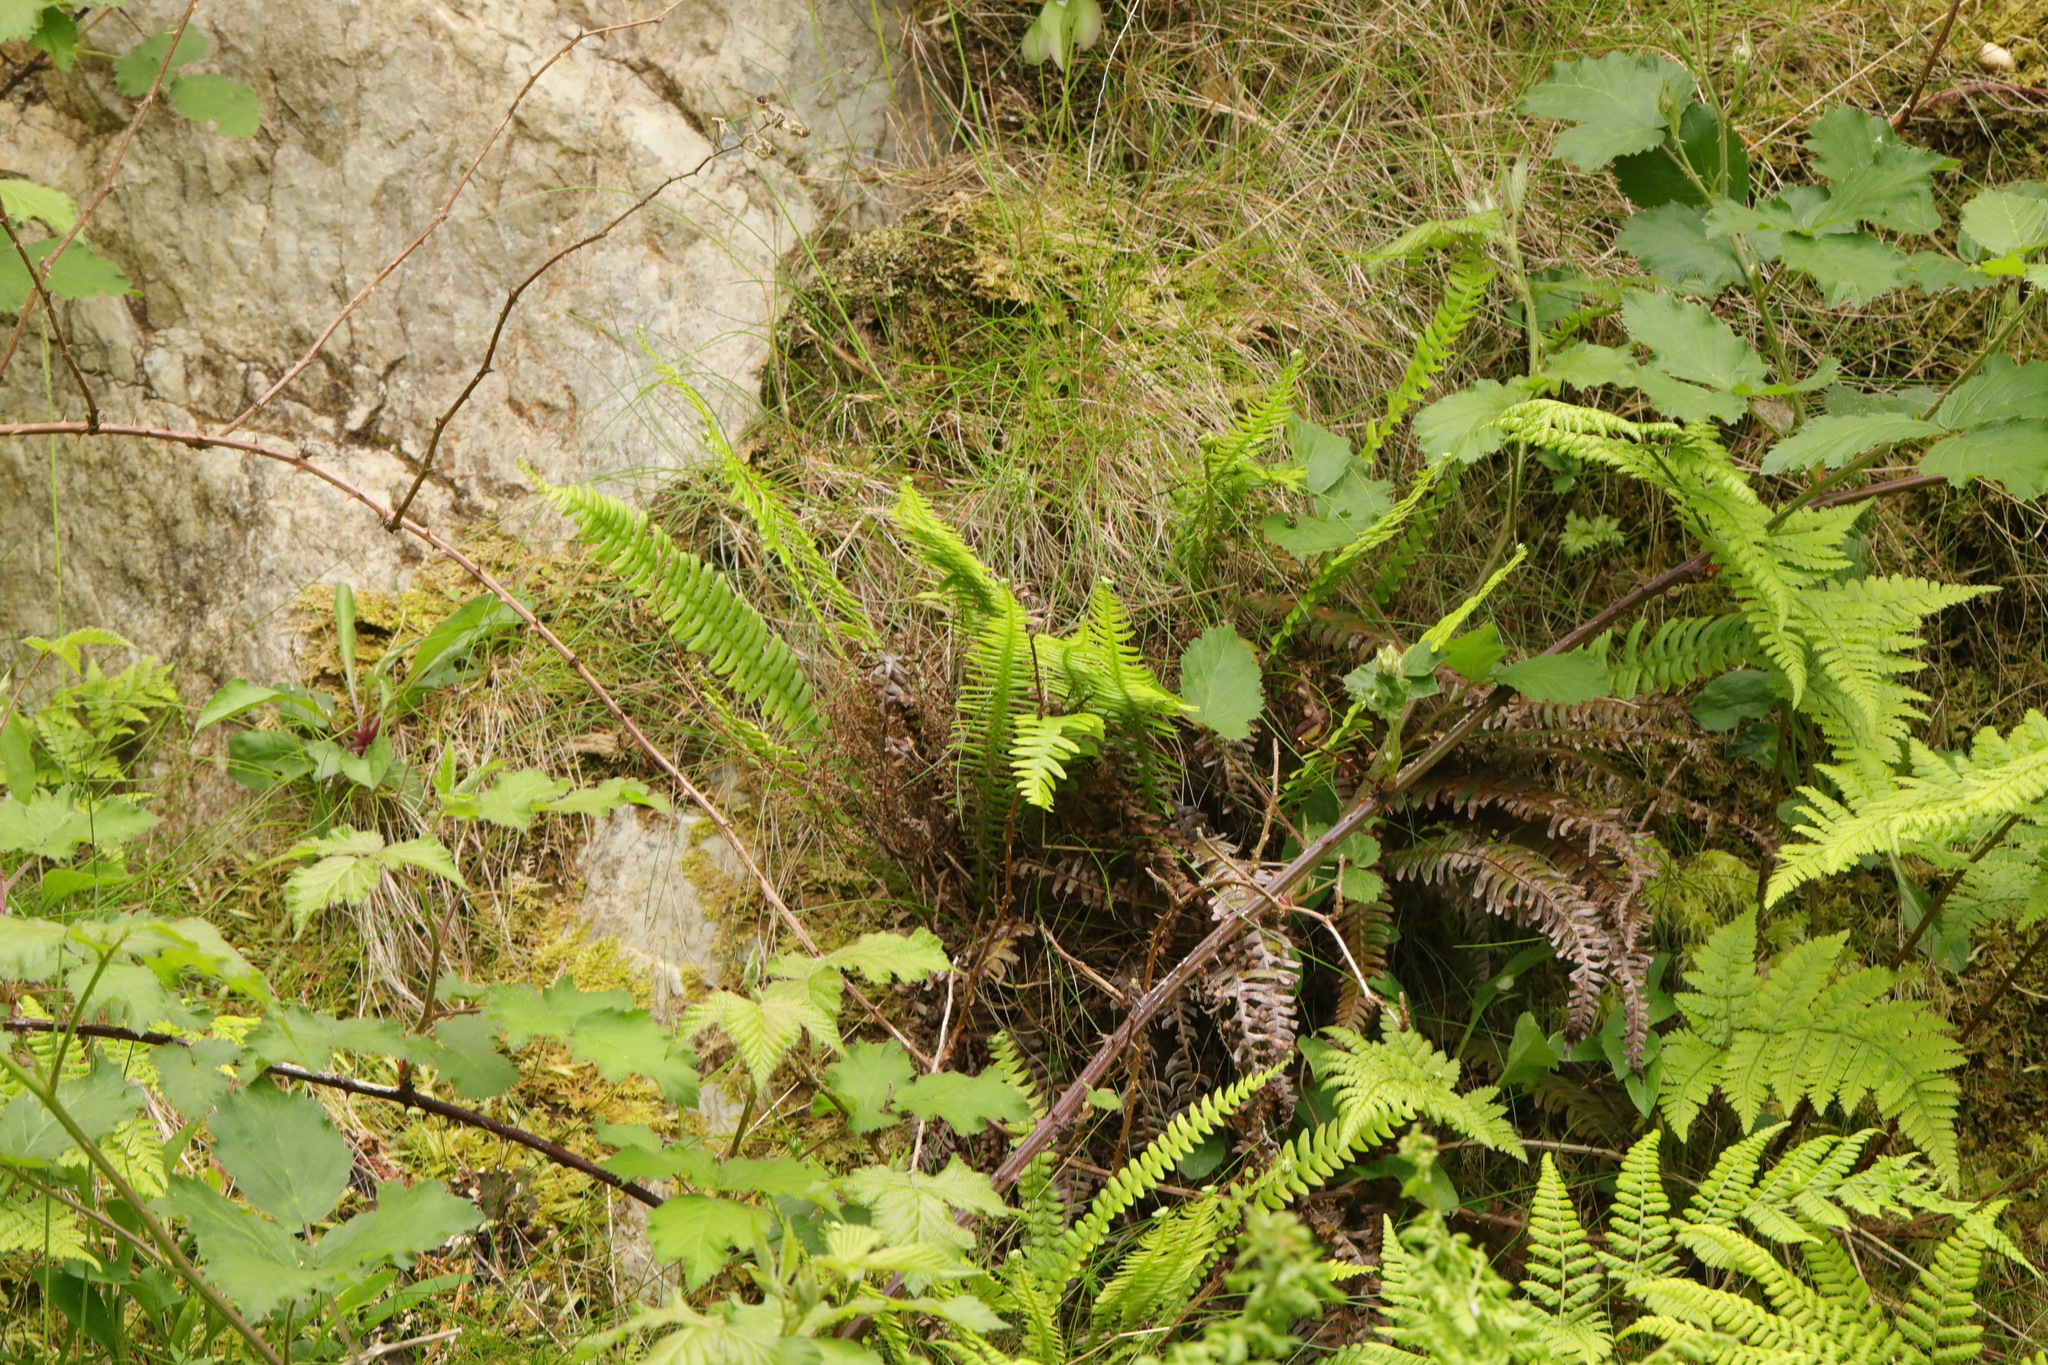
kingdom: Plantae
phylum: Tracheophyta
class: Polypodiopsida
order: Polypodiales
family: Blechnaceae
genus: Struthiopteris
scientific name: Struthiopteris spicant
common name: Deer fern
